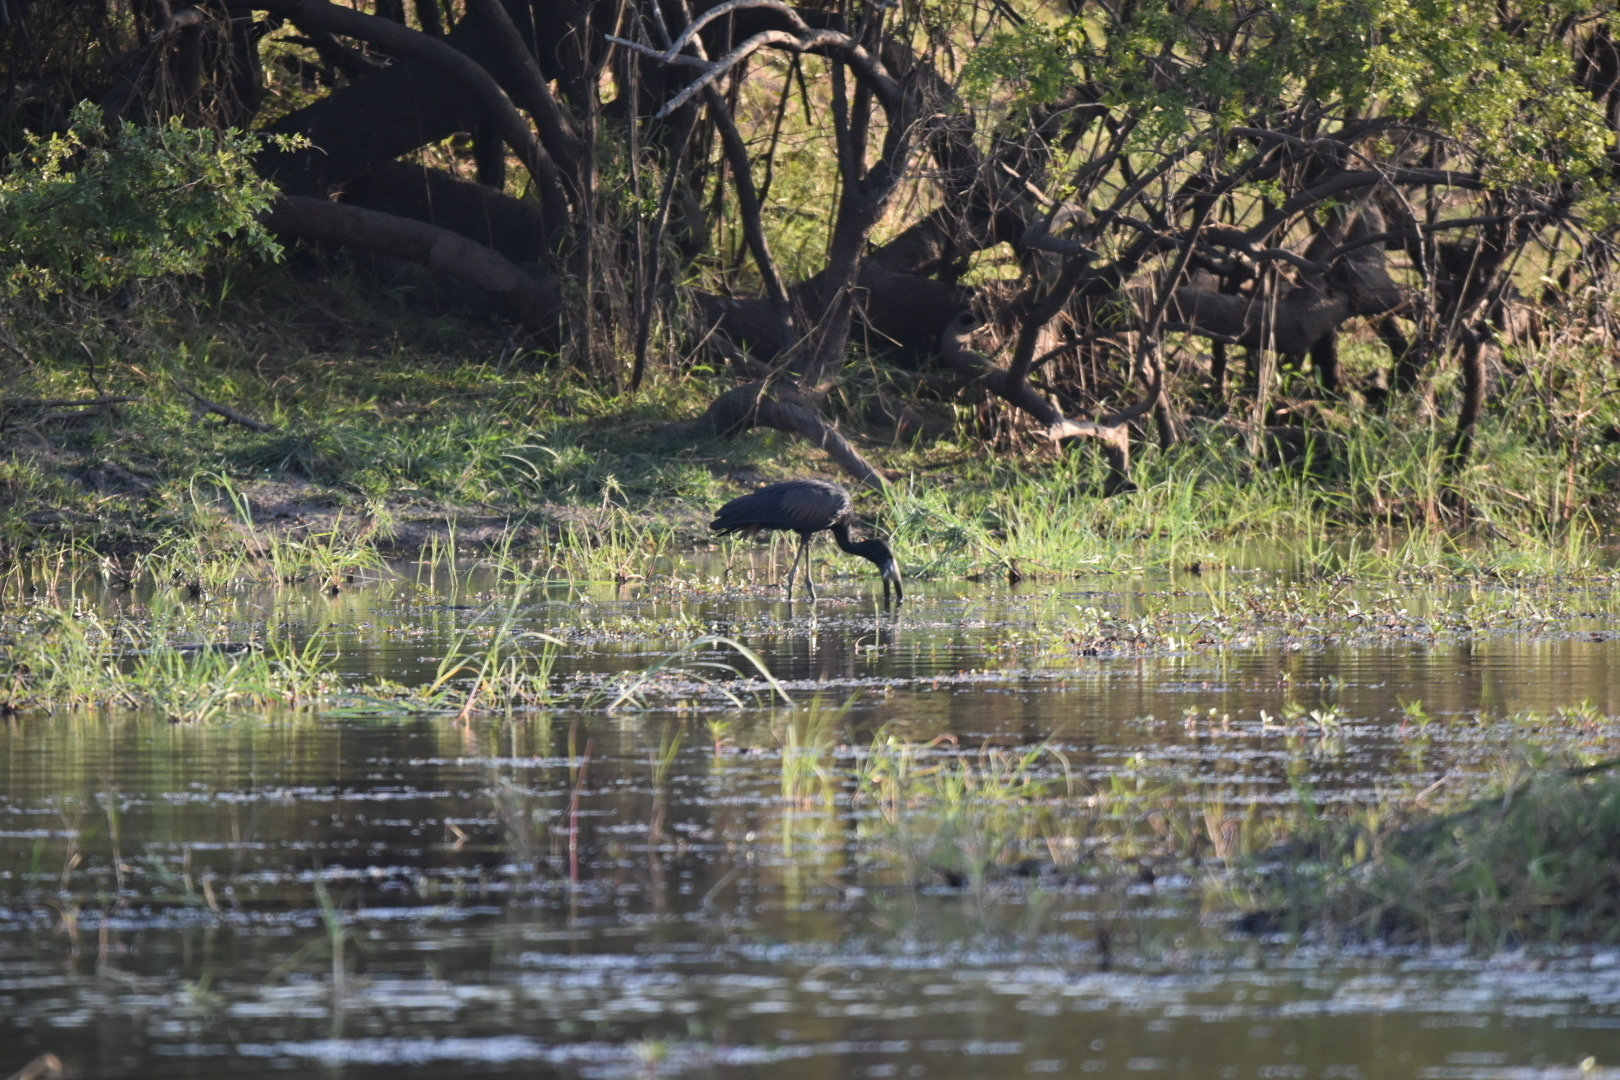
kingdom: Animalia
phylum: Chordata
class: Aves
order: Ciconiiformes
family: Ciconiidae
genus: Anastomus
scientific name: Anastomus lamelligerus
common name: African openbill
